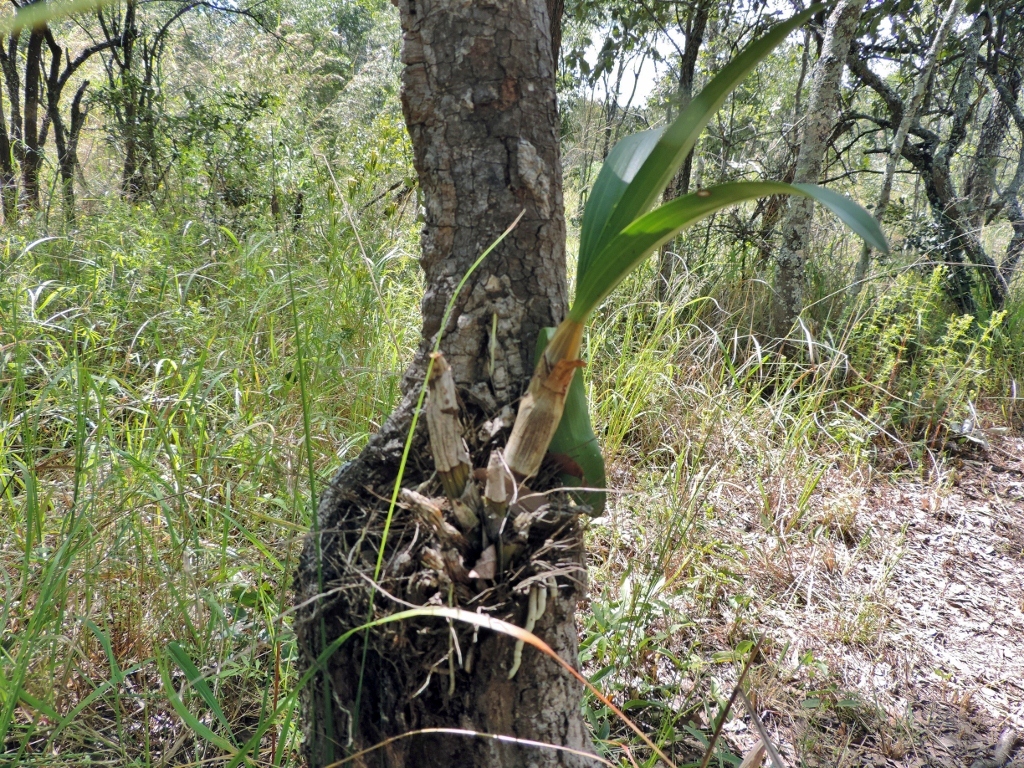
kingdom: Plantae
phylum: Tracheophyta
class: Liliopsida
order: Asparagales
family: Orchidaceae
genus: Ansellia
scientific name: Ansellia africana
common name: African ansellia
